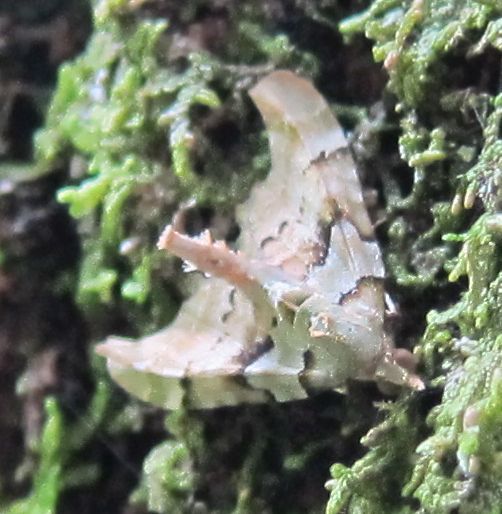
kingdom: Animalia
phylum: Arthropoda
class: Insecta
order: Lepidoptera
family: Geometridae
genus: Elvia
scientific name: Elvia glaucata
